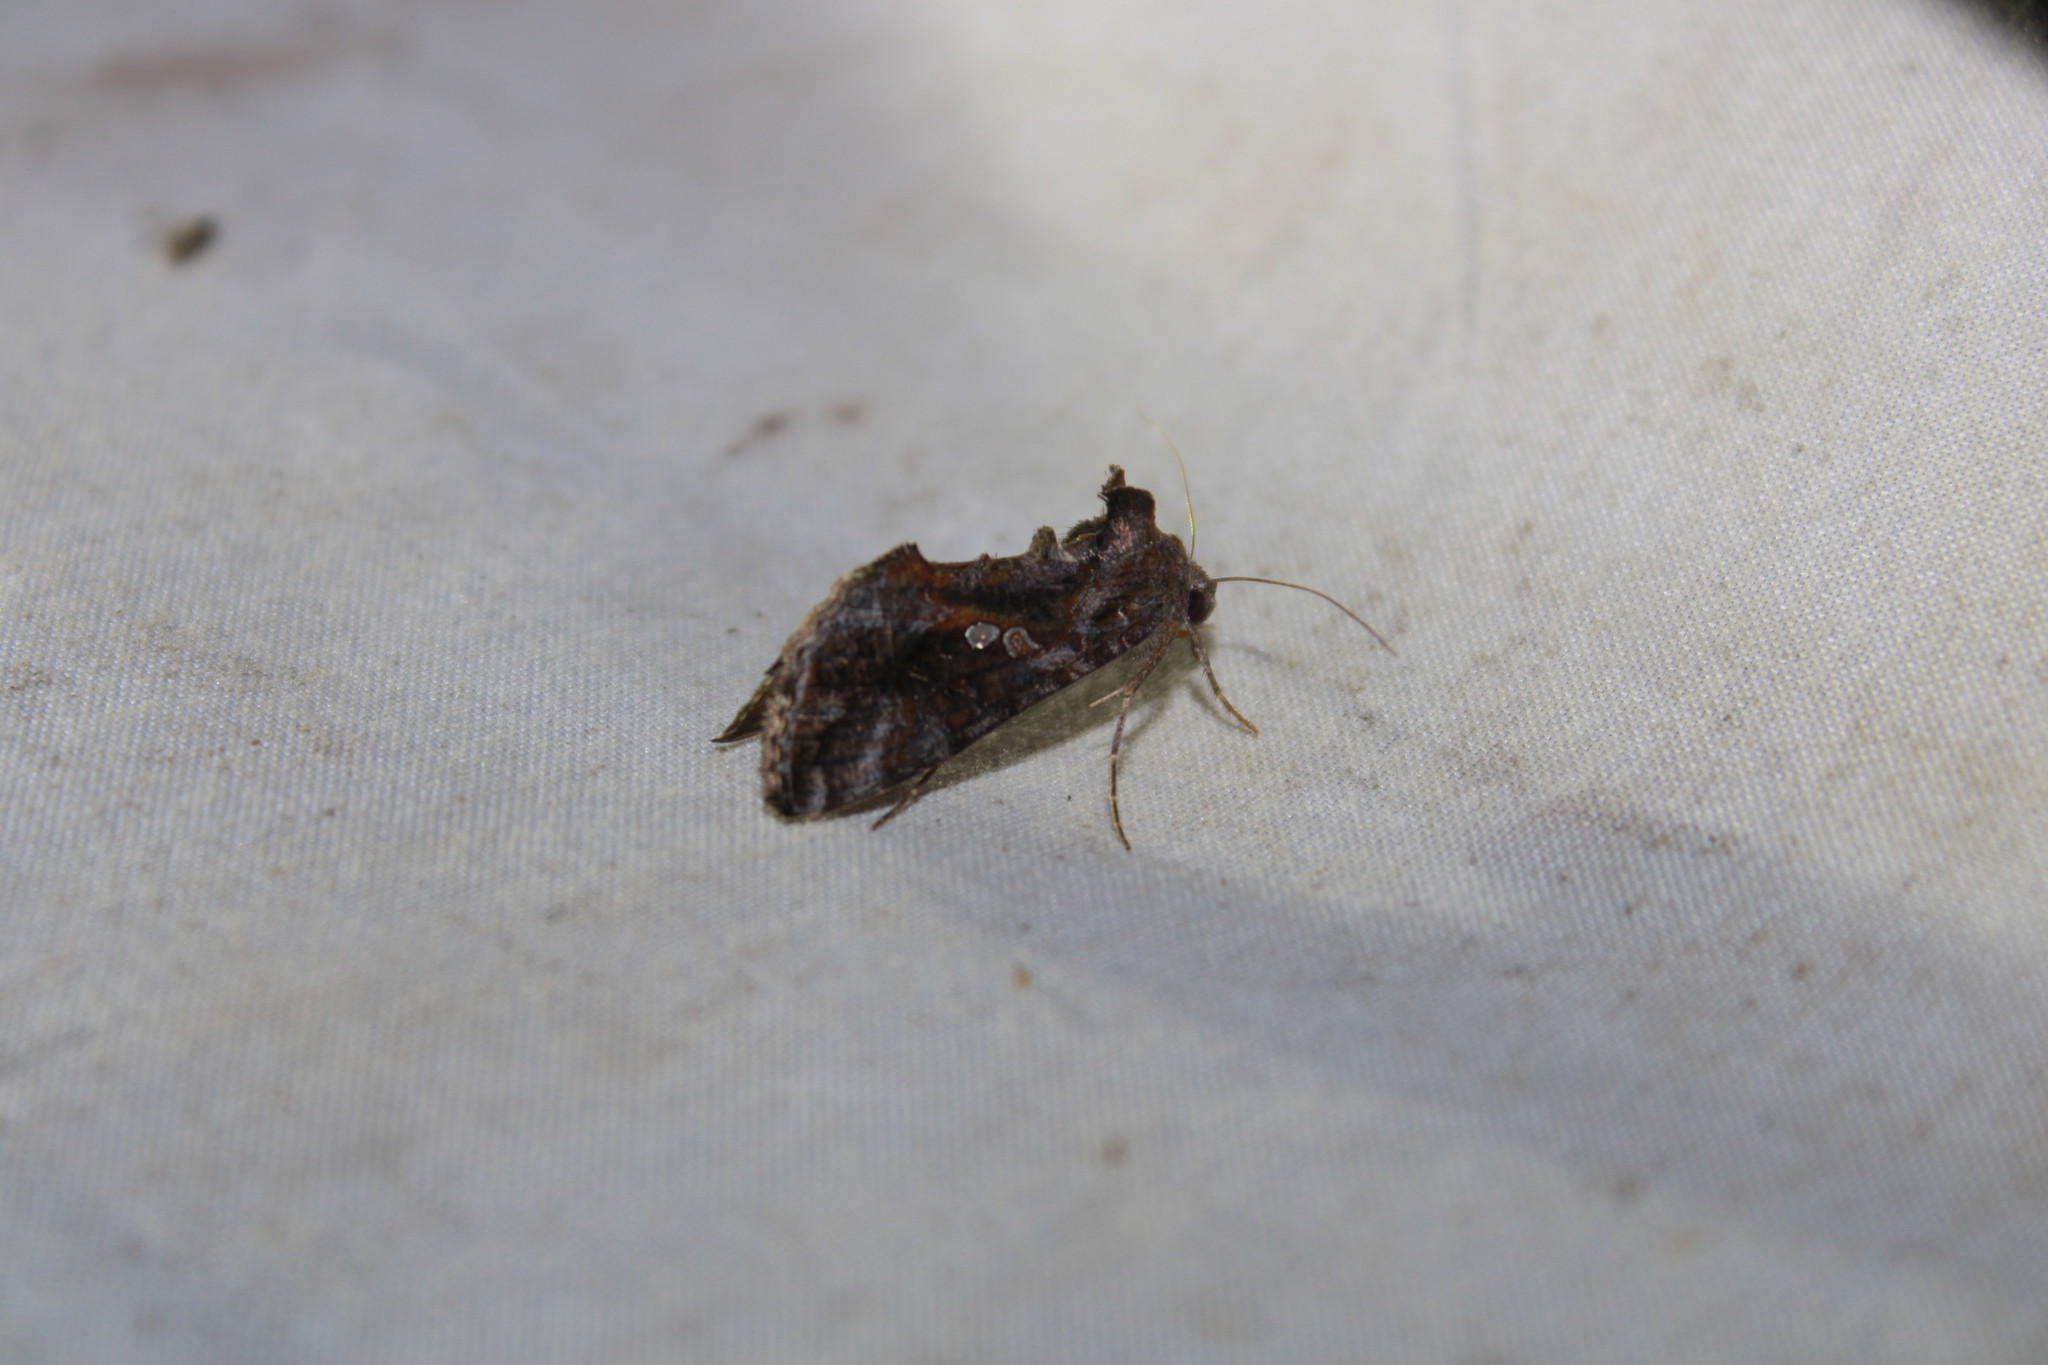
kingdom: Animalia
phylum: Arthropoda
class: Insecta
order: Lepidoptera
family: Noctuidae
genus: Chrysodeixis
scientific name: Chrysodeixis includens
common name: Cutworm moth
